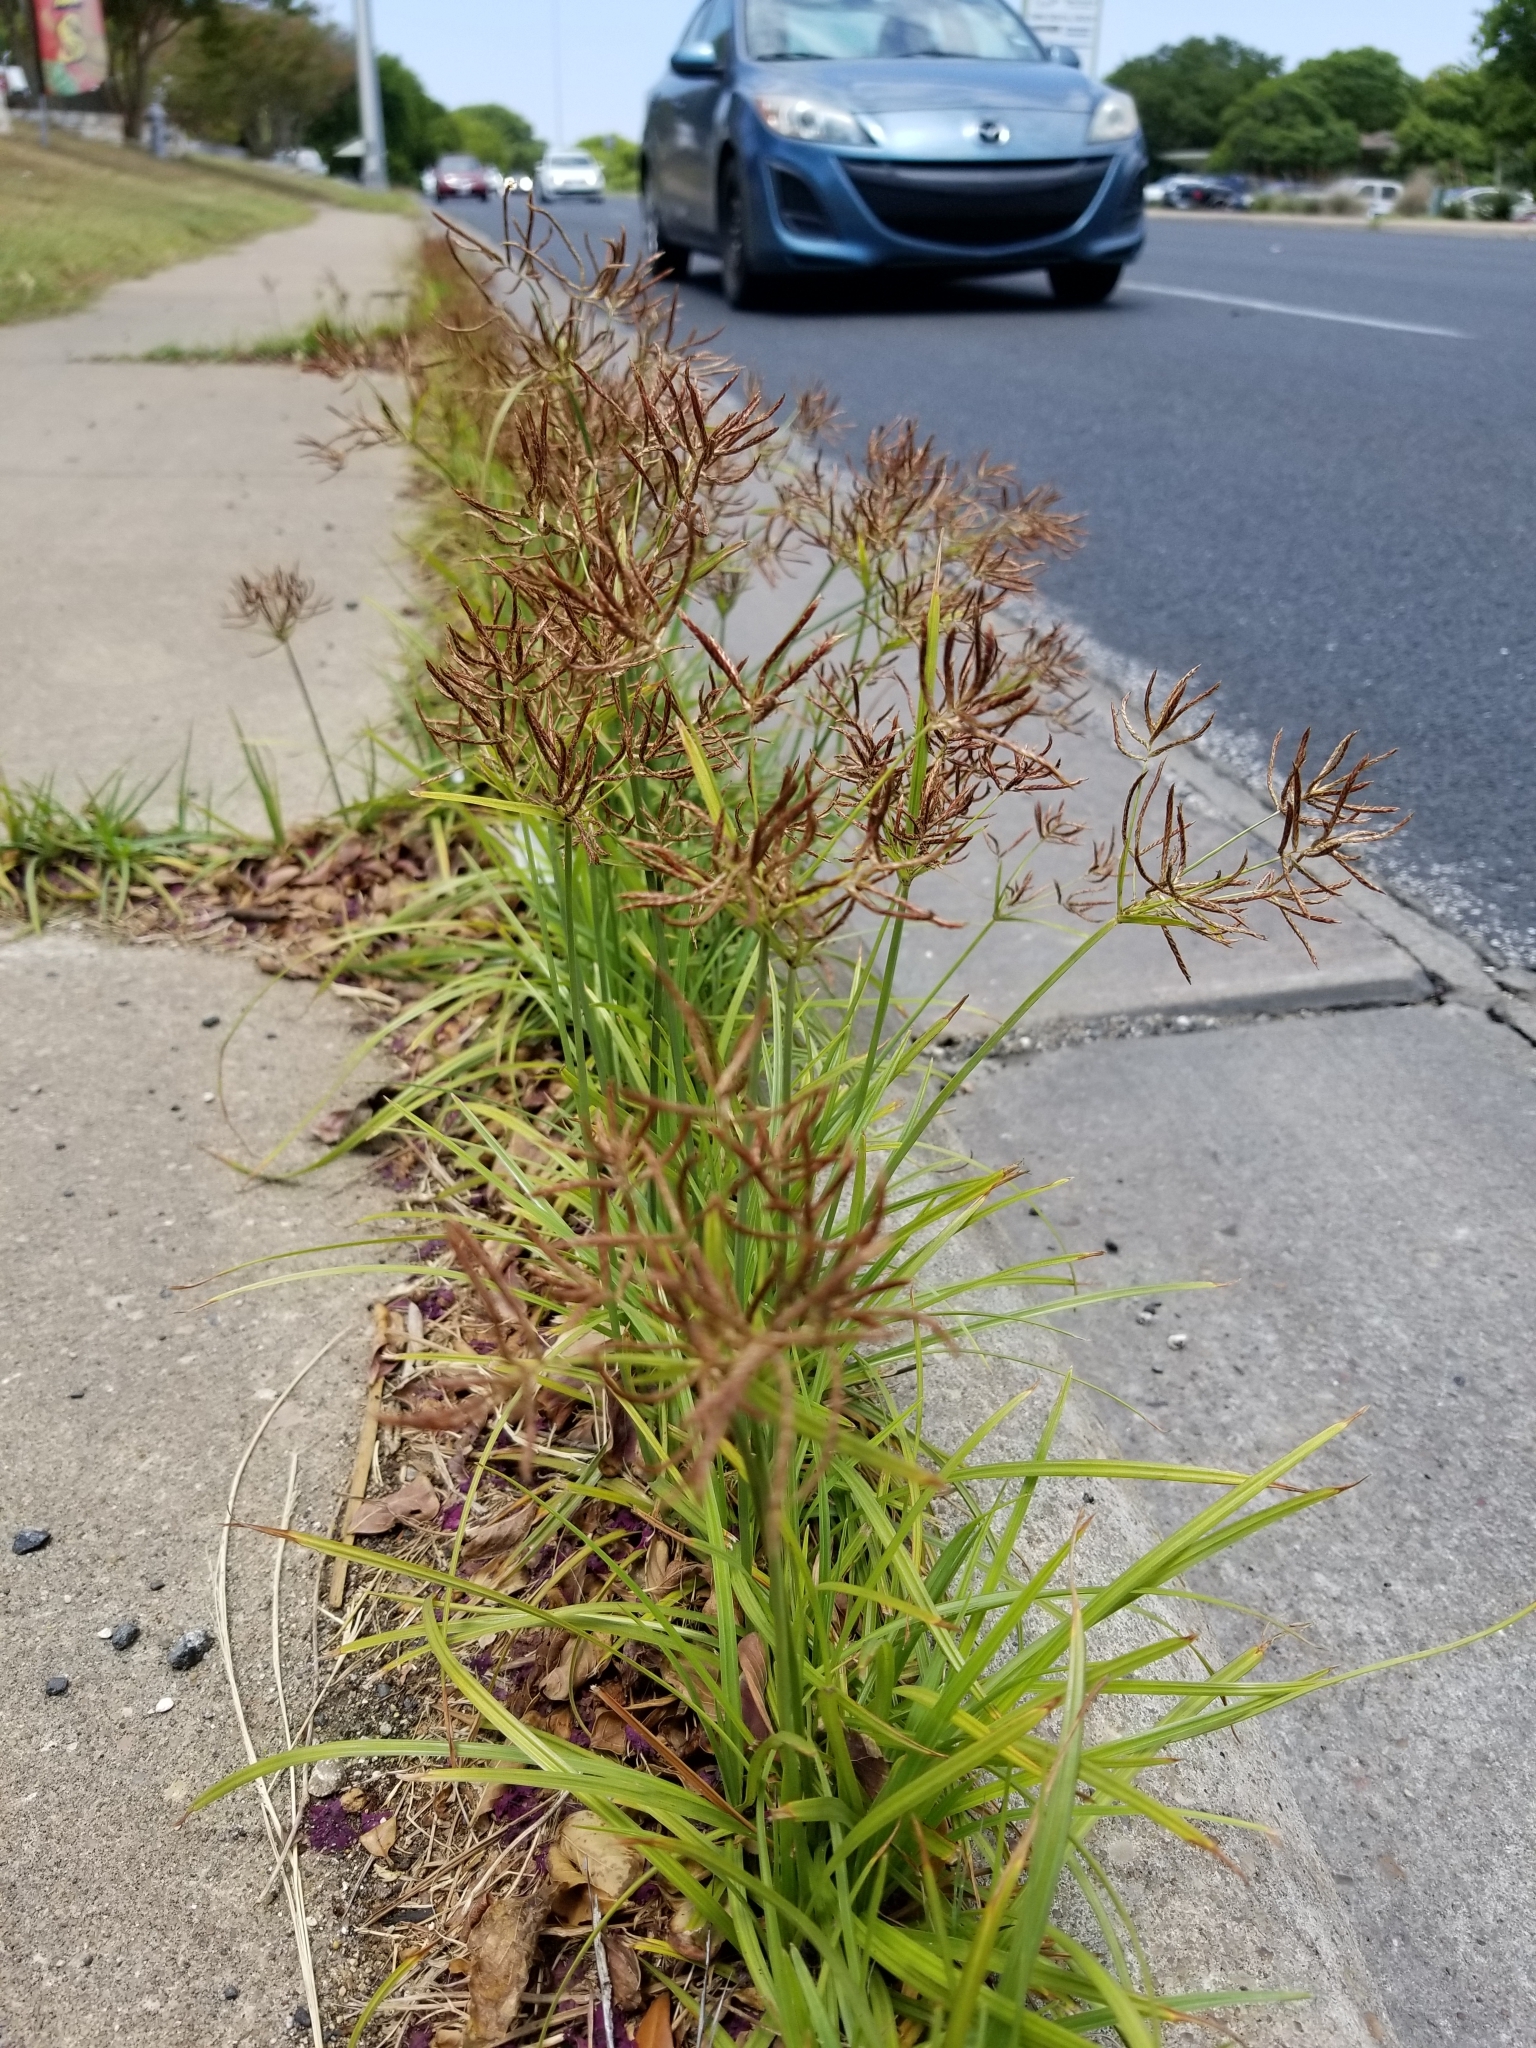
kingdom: Plantae
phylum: Tracheophyta
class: Liliopsida
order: Poales
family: Cyperaceae
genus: Cyperus
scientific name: Cyperus rotundus
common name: Nutgrass
